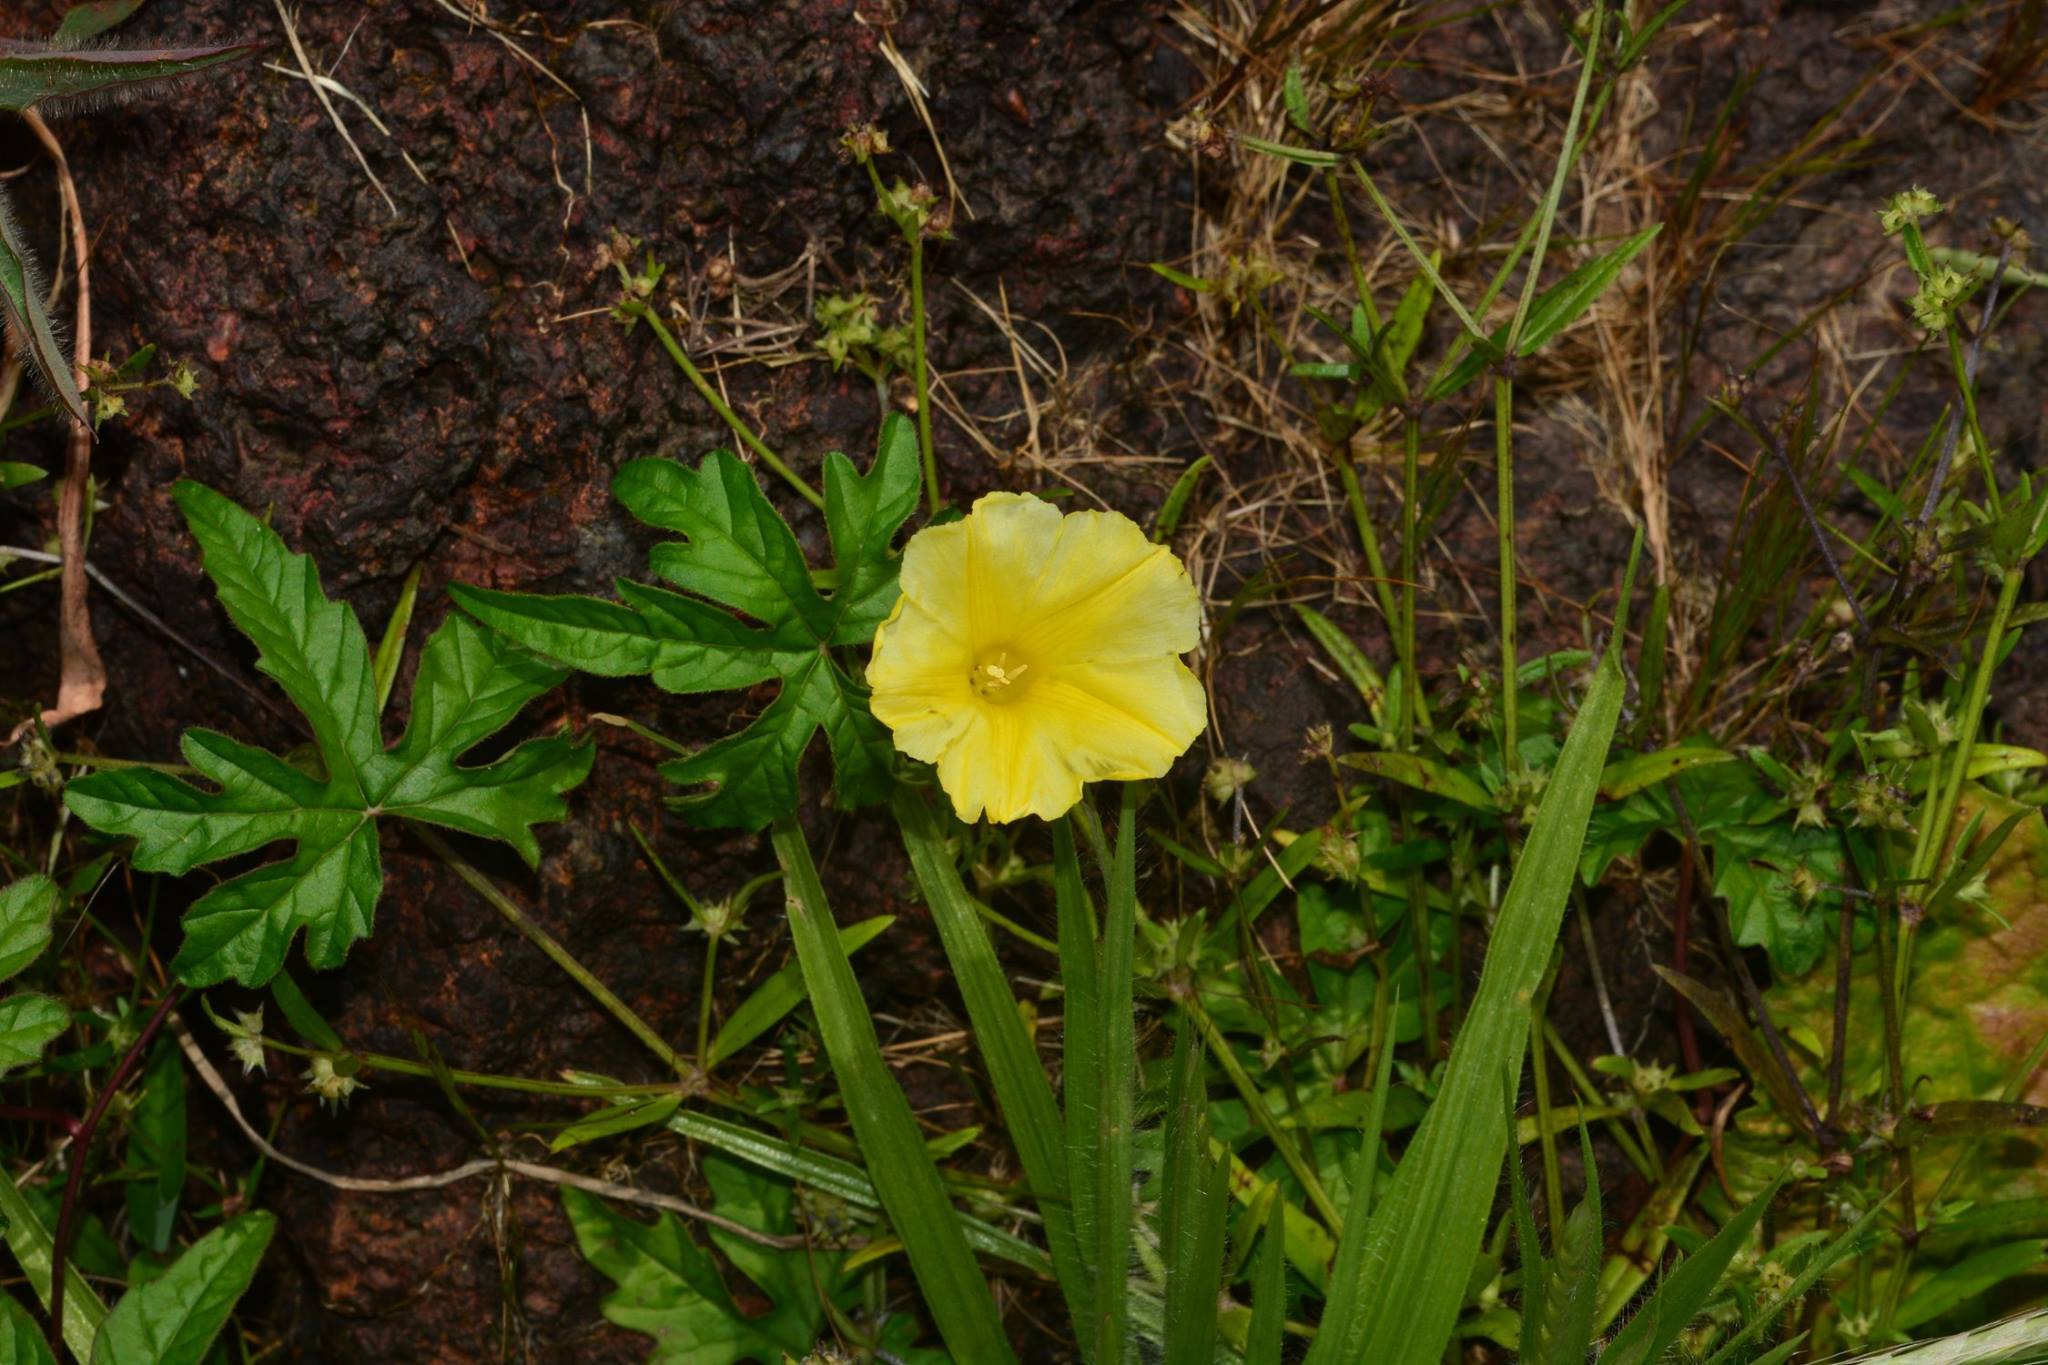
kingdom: Plantae
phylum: Tracheophyta
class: Magnoliopsida
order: Solanales
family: Convolvulaceae
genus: Distimake
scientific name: Distimake rhyncorhizus
